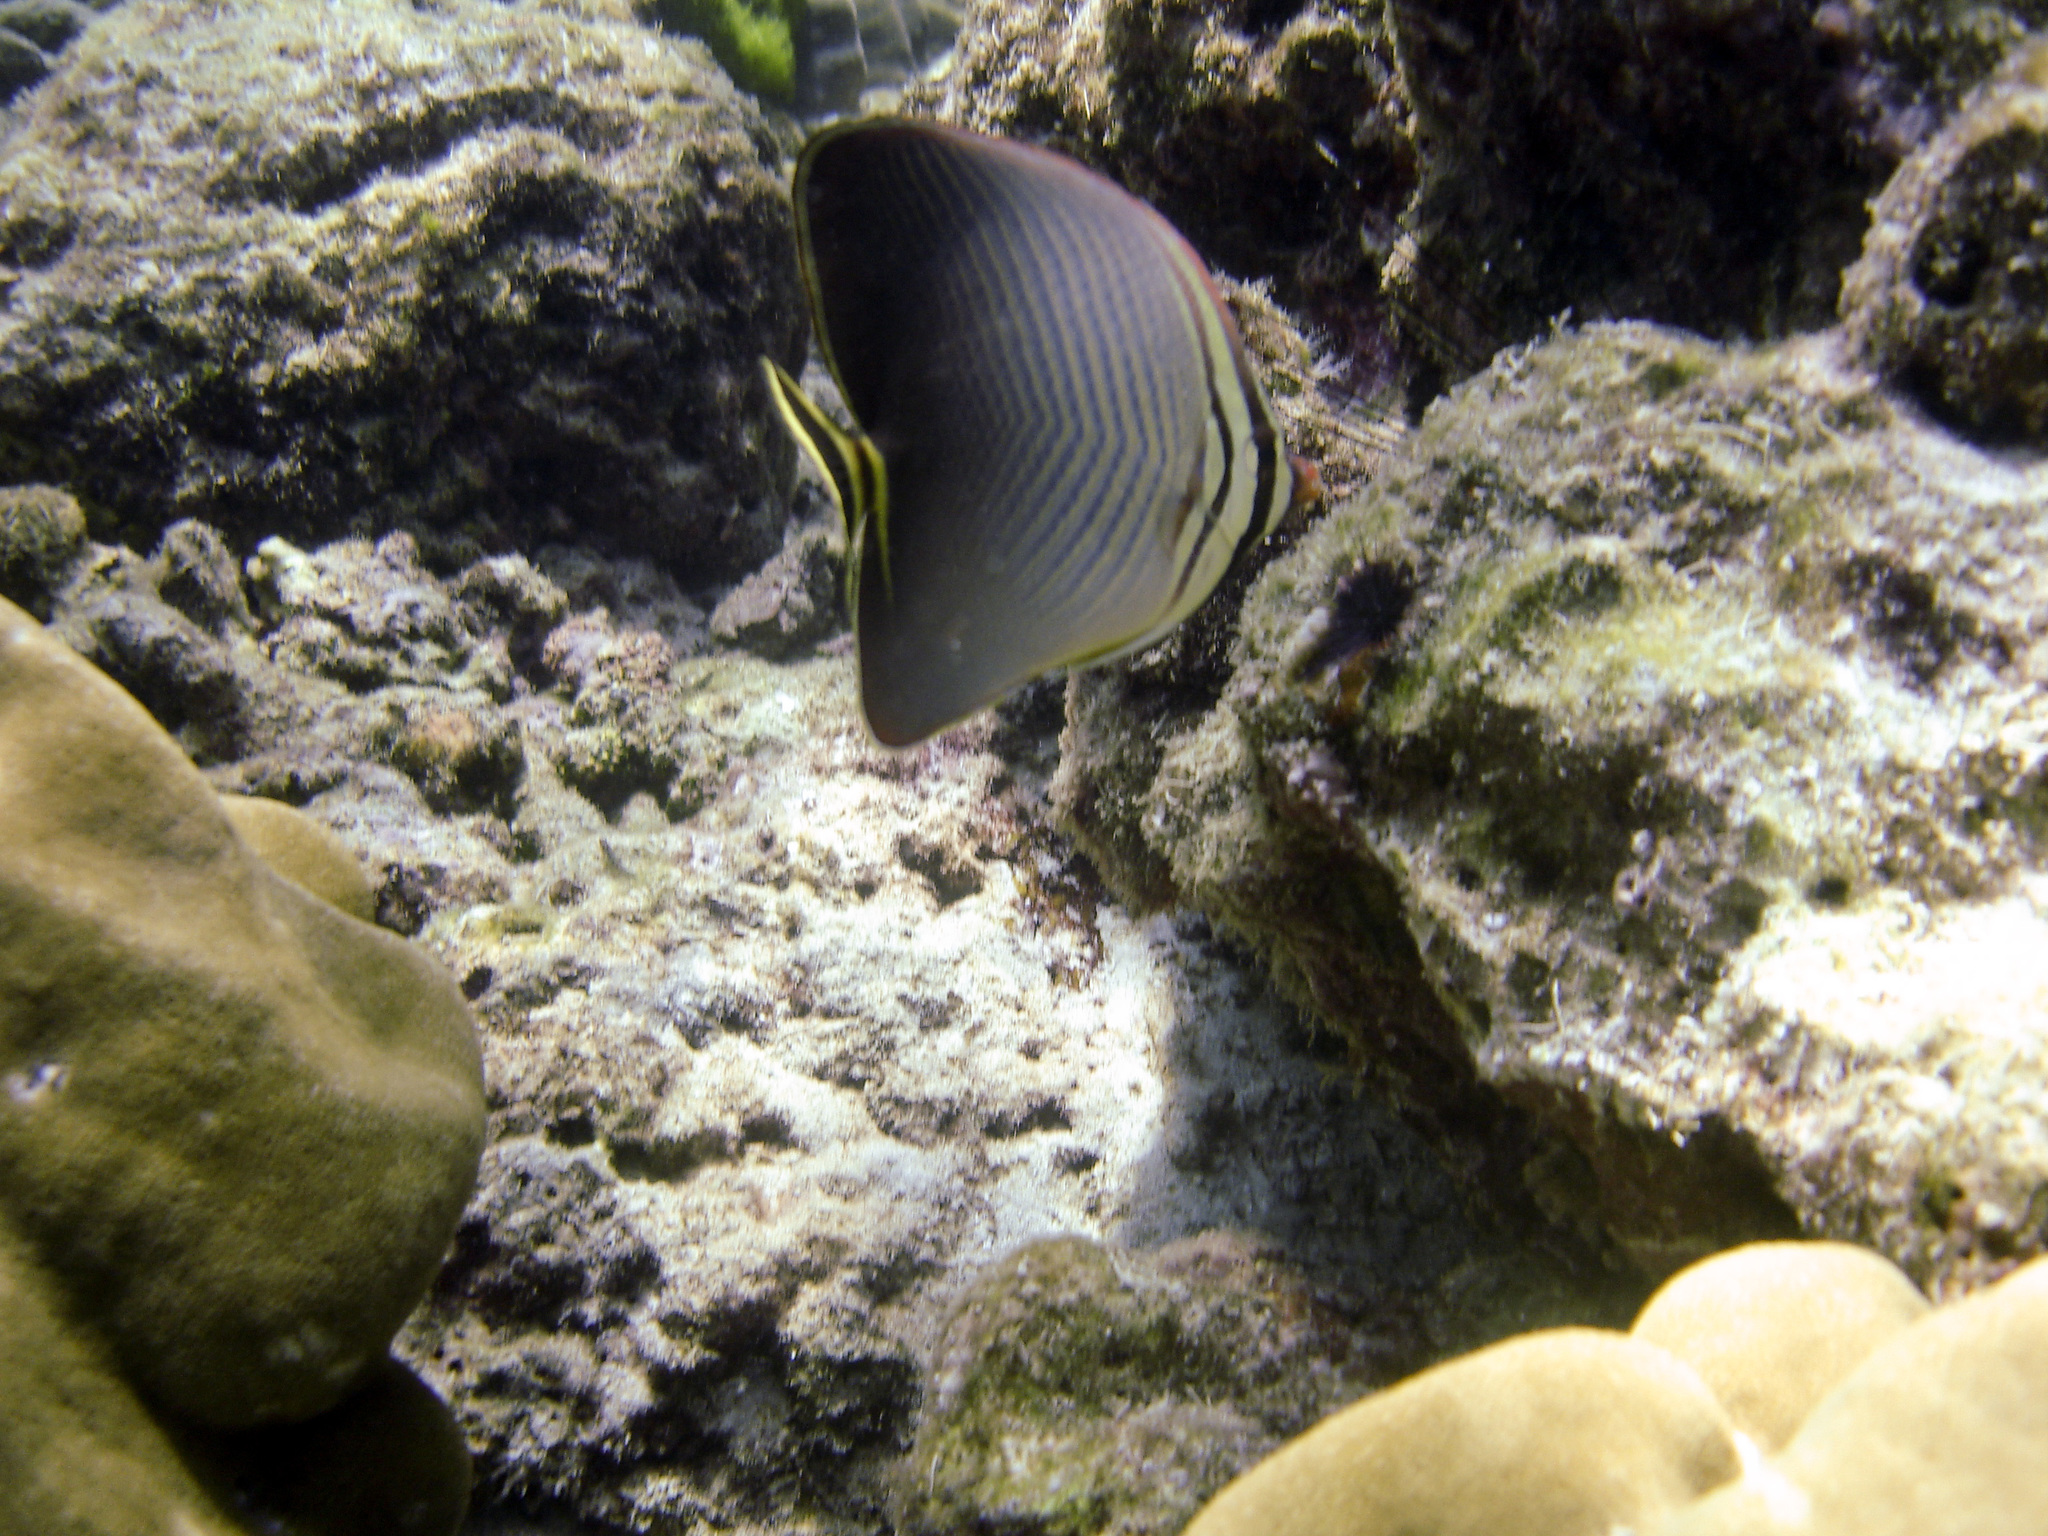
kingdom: Animalia
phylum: Chordata
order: Perciformes
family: Chaetodontidae
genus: Chaetodon
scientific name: Chaetodon triangulum
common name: Triangular butterflyfish
